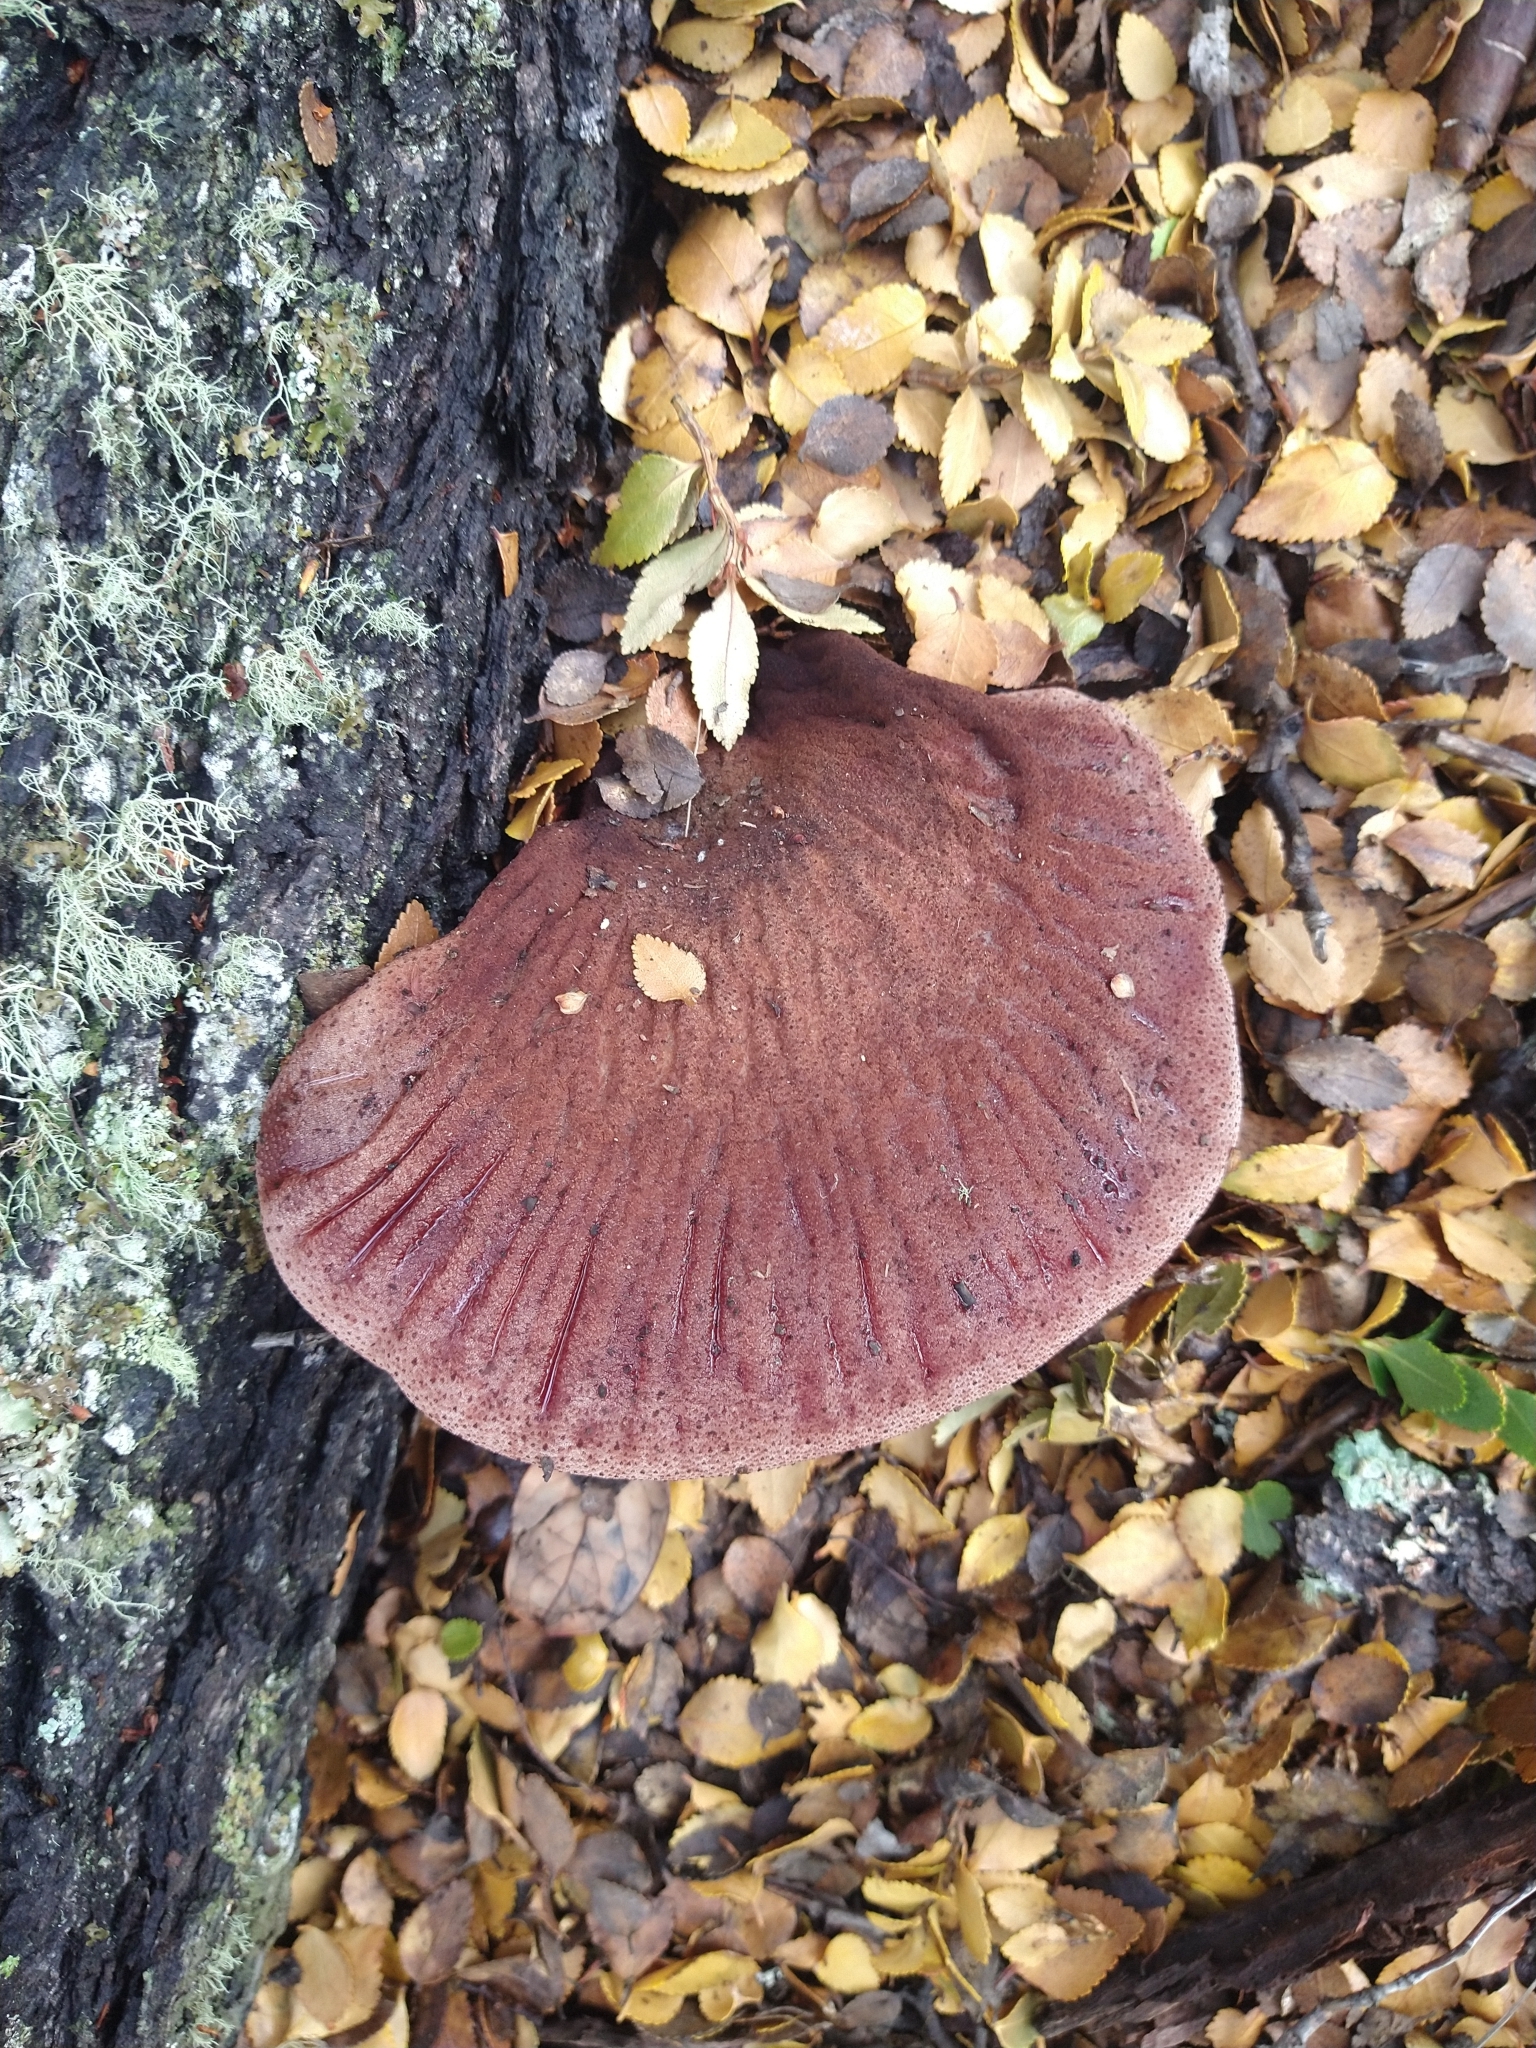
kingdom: Fungi
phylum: Basidiomycota
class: Agaricomycetes
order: Agaricales
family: Fistulinaceae
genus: Fistulina
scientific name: Fistulina antarctica
